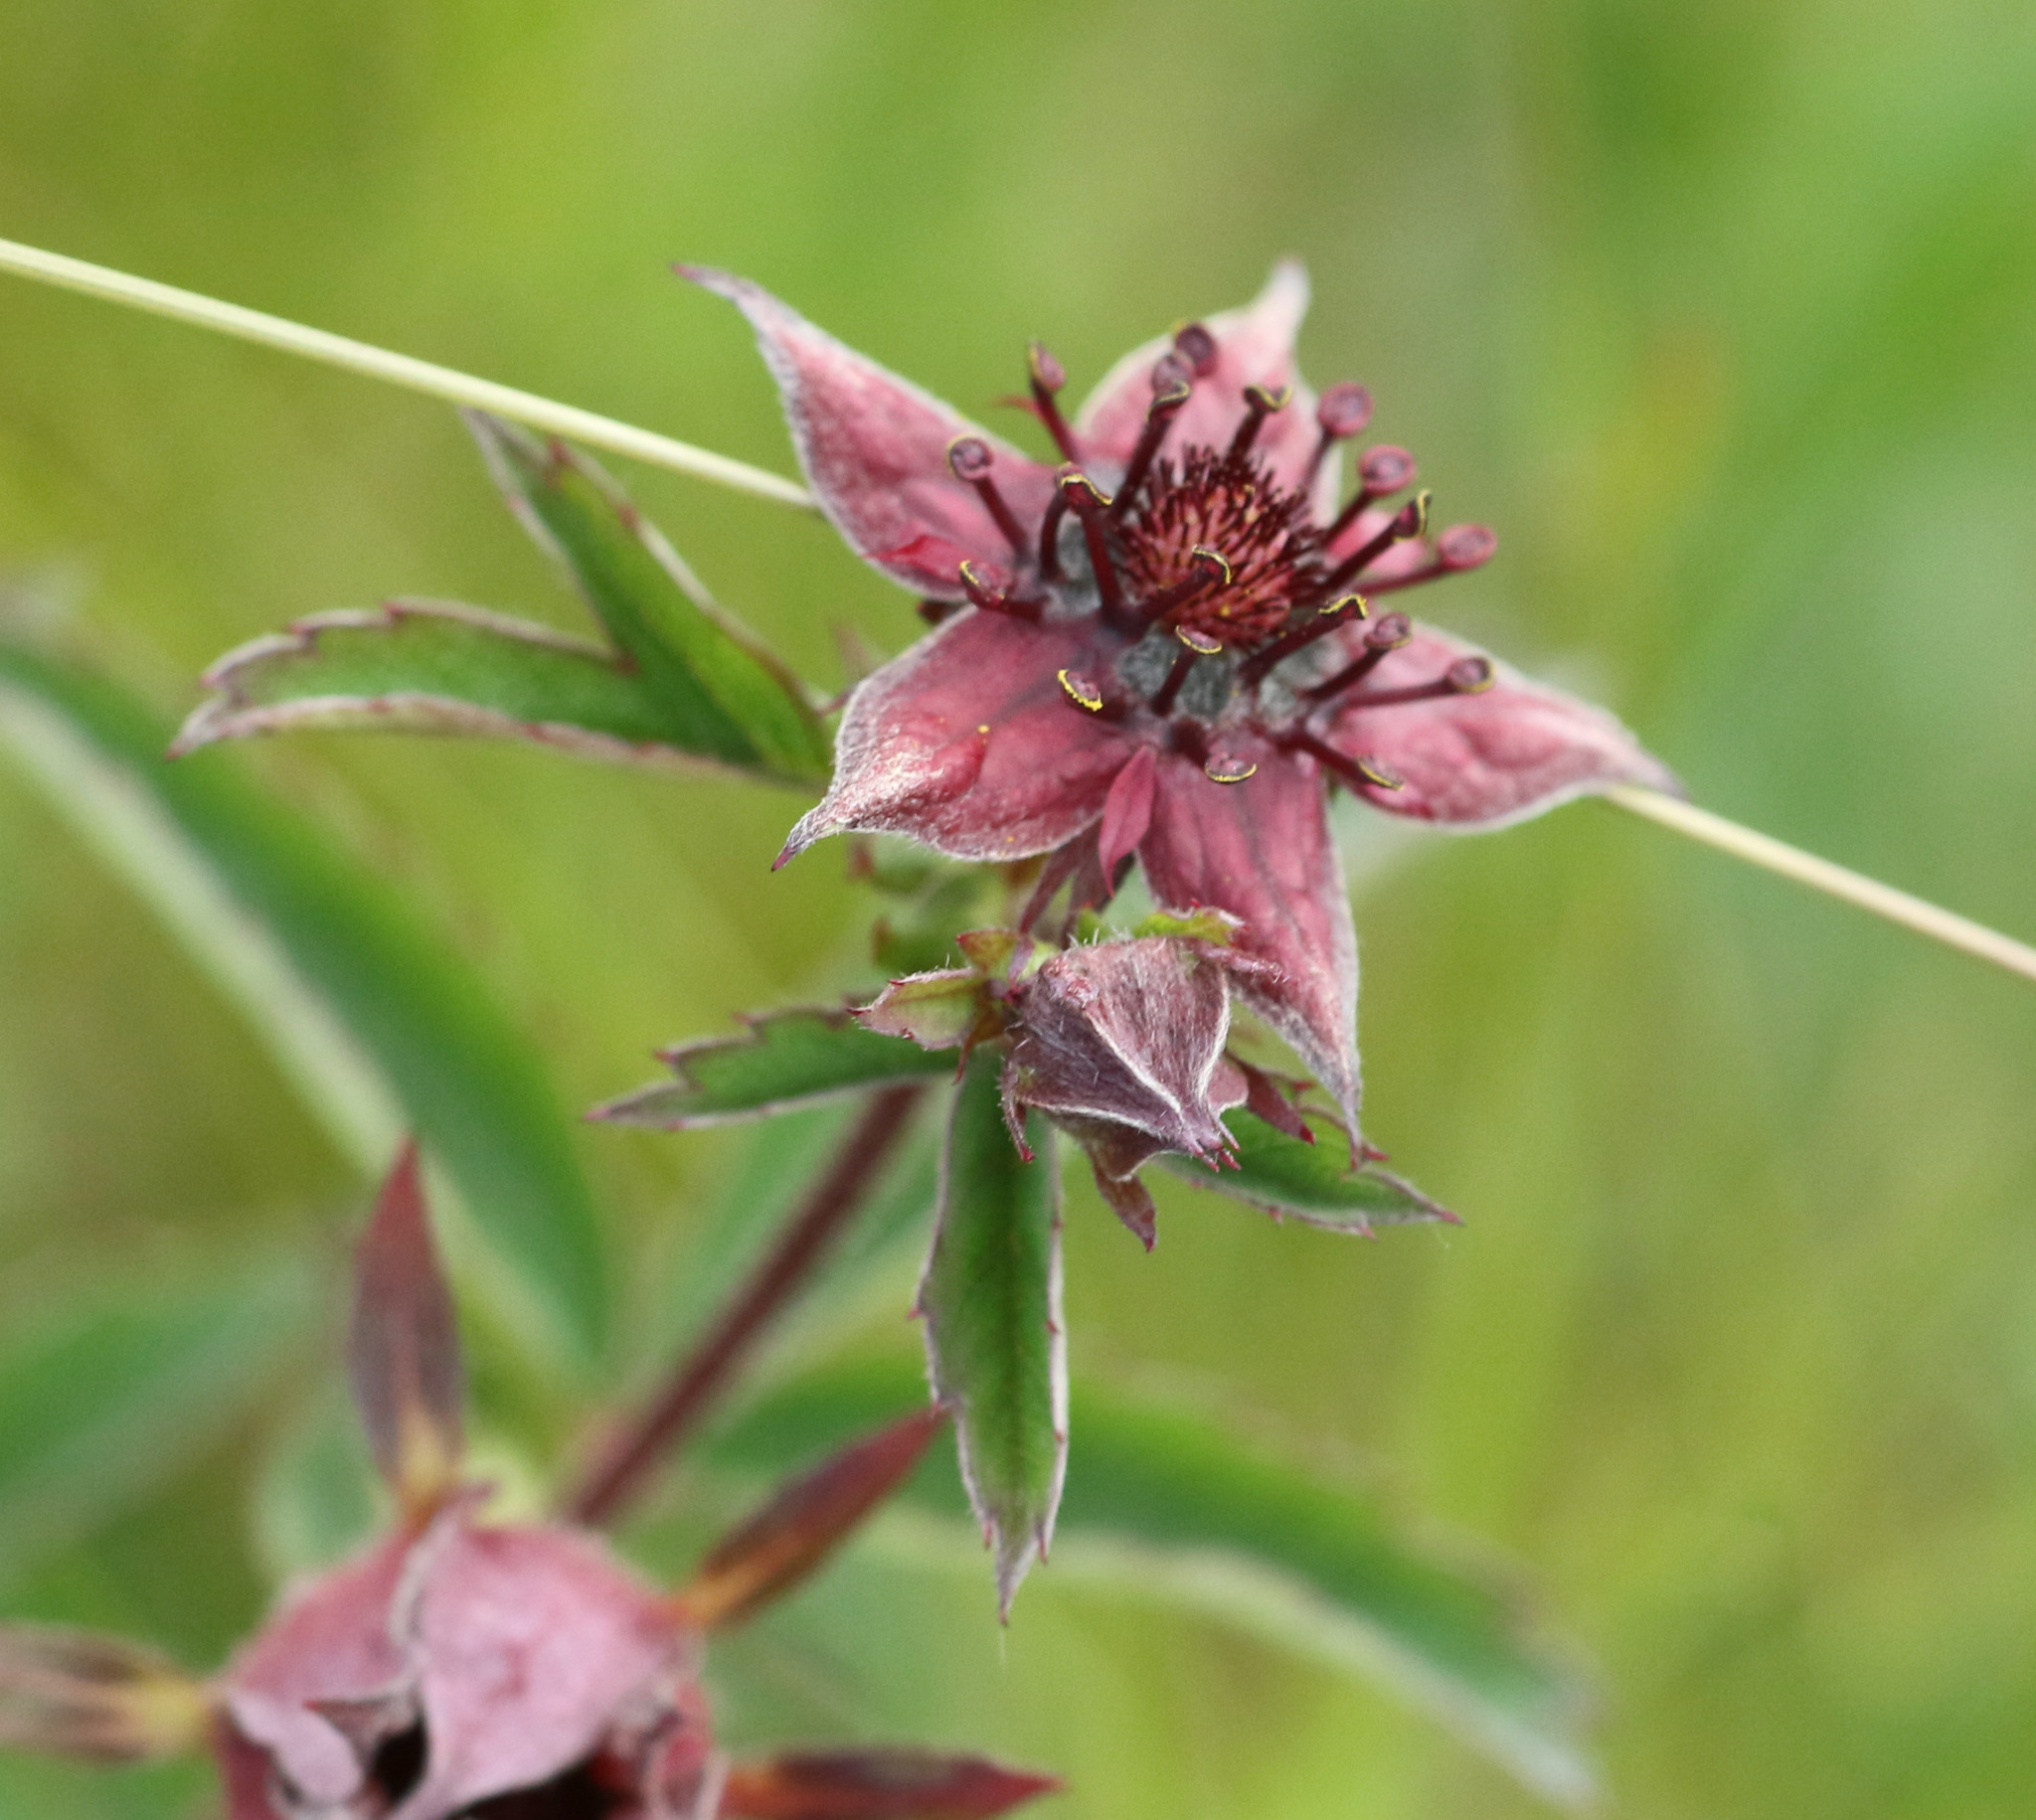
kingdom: Plantae
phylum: Tracheophyta
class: Magnoliopsida
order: Rosales
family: Rosaceae
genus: Comarum
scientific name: Comarum palustre
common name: Marsh cinquefoil
